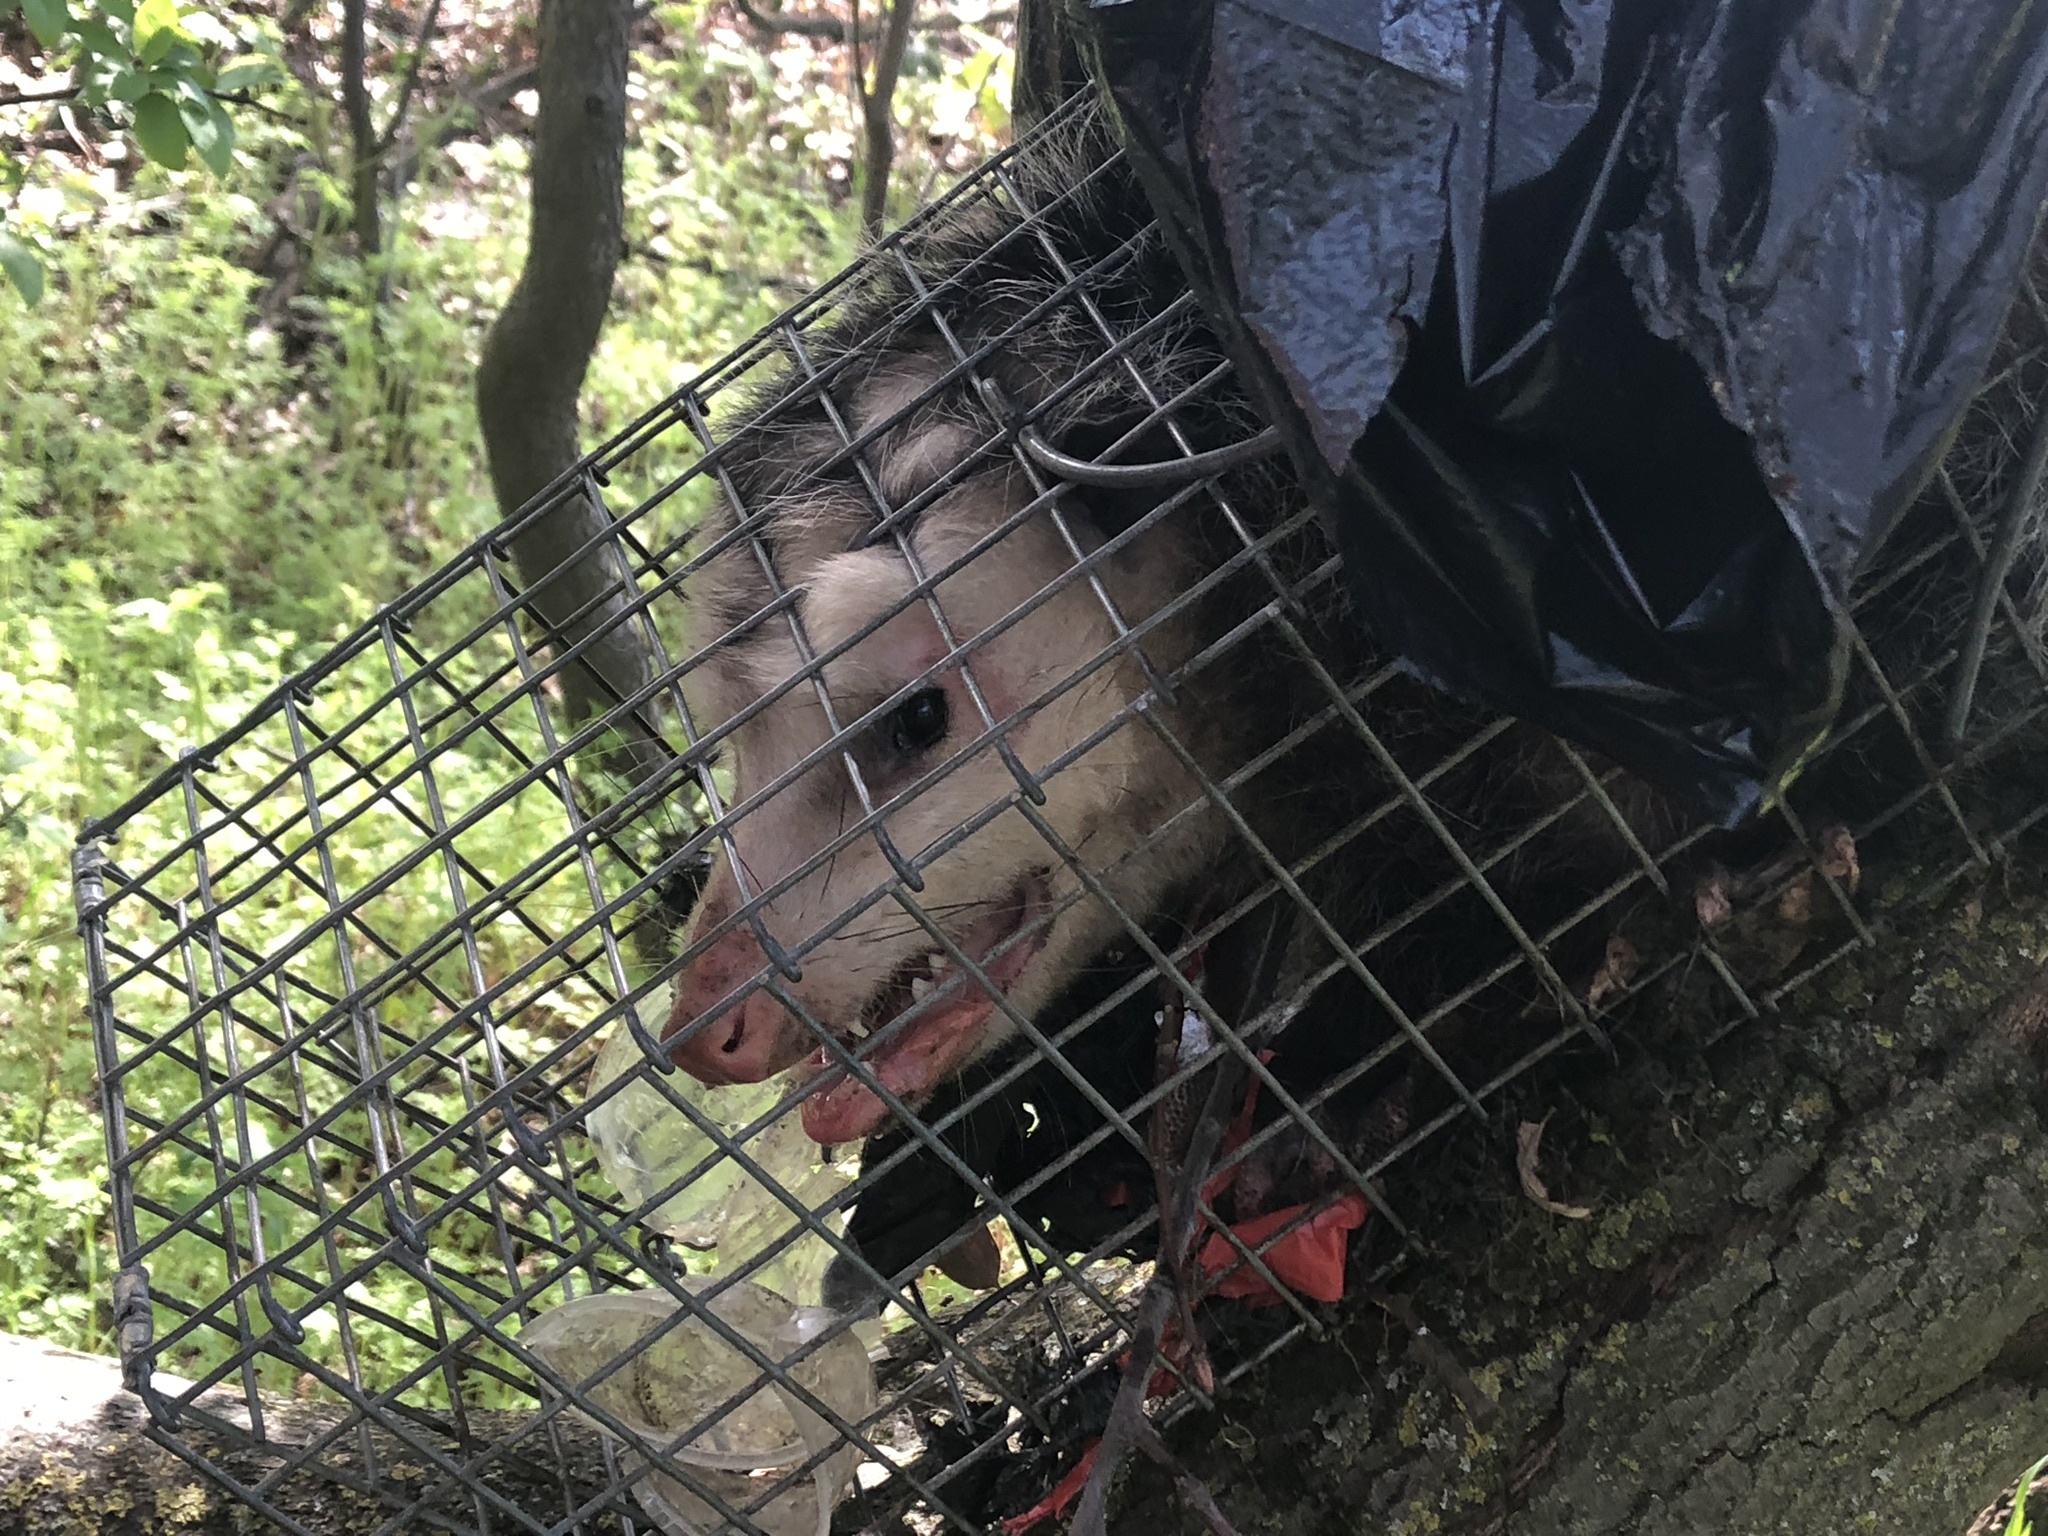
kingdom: Animalia
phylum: Chordata
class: Mammalia
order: Didelphimorphia
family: Didelphidae
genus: Didelphis
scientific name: Didelphis virginiana
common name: Virginia opossum
